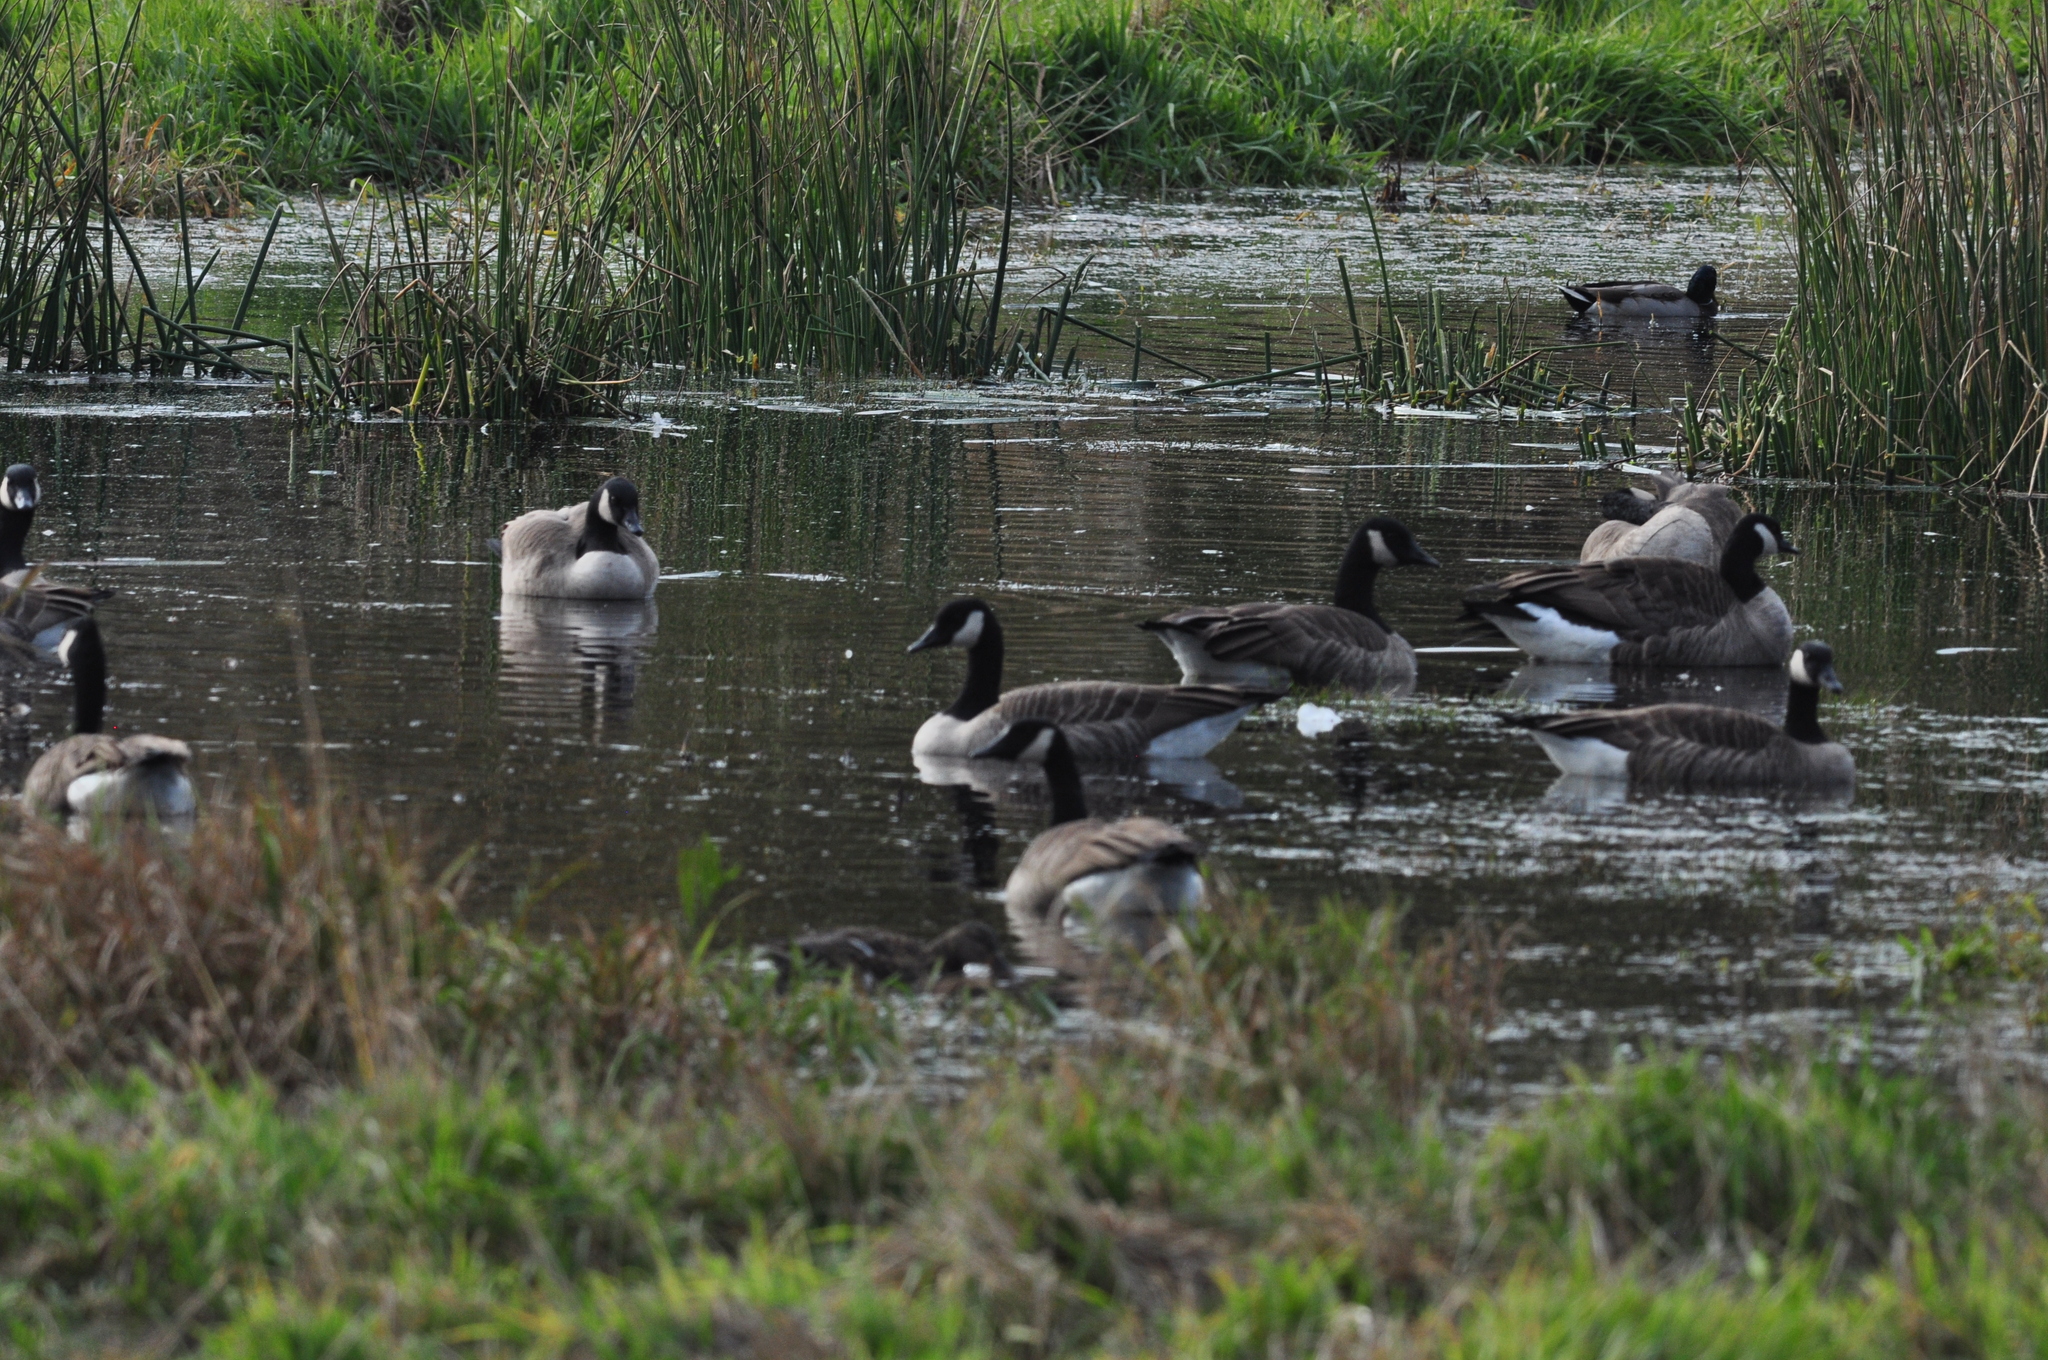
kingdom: Animalia
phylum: Chordata
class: Aves
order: Anseriformes
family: Anatidae
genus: Branta
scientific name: Branta canadensis
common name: Canada goose
